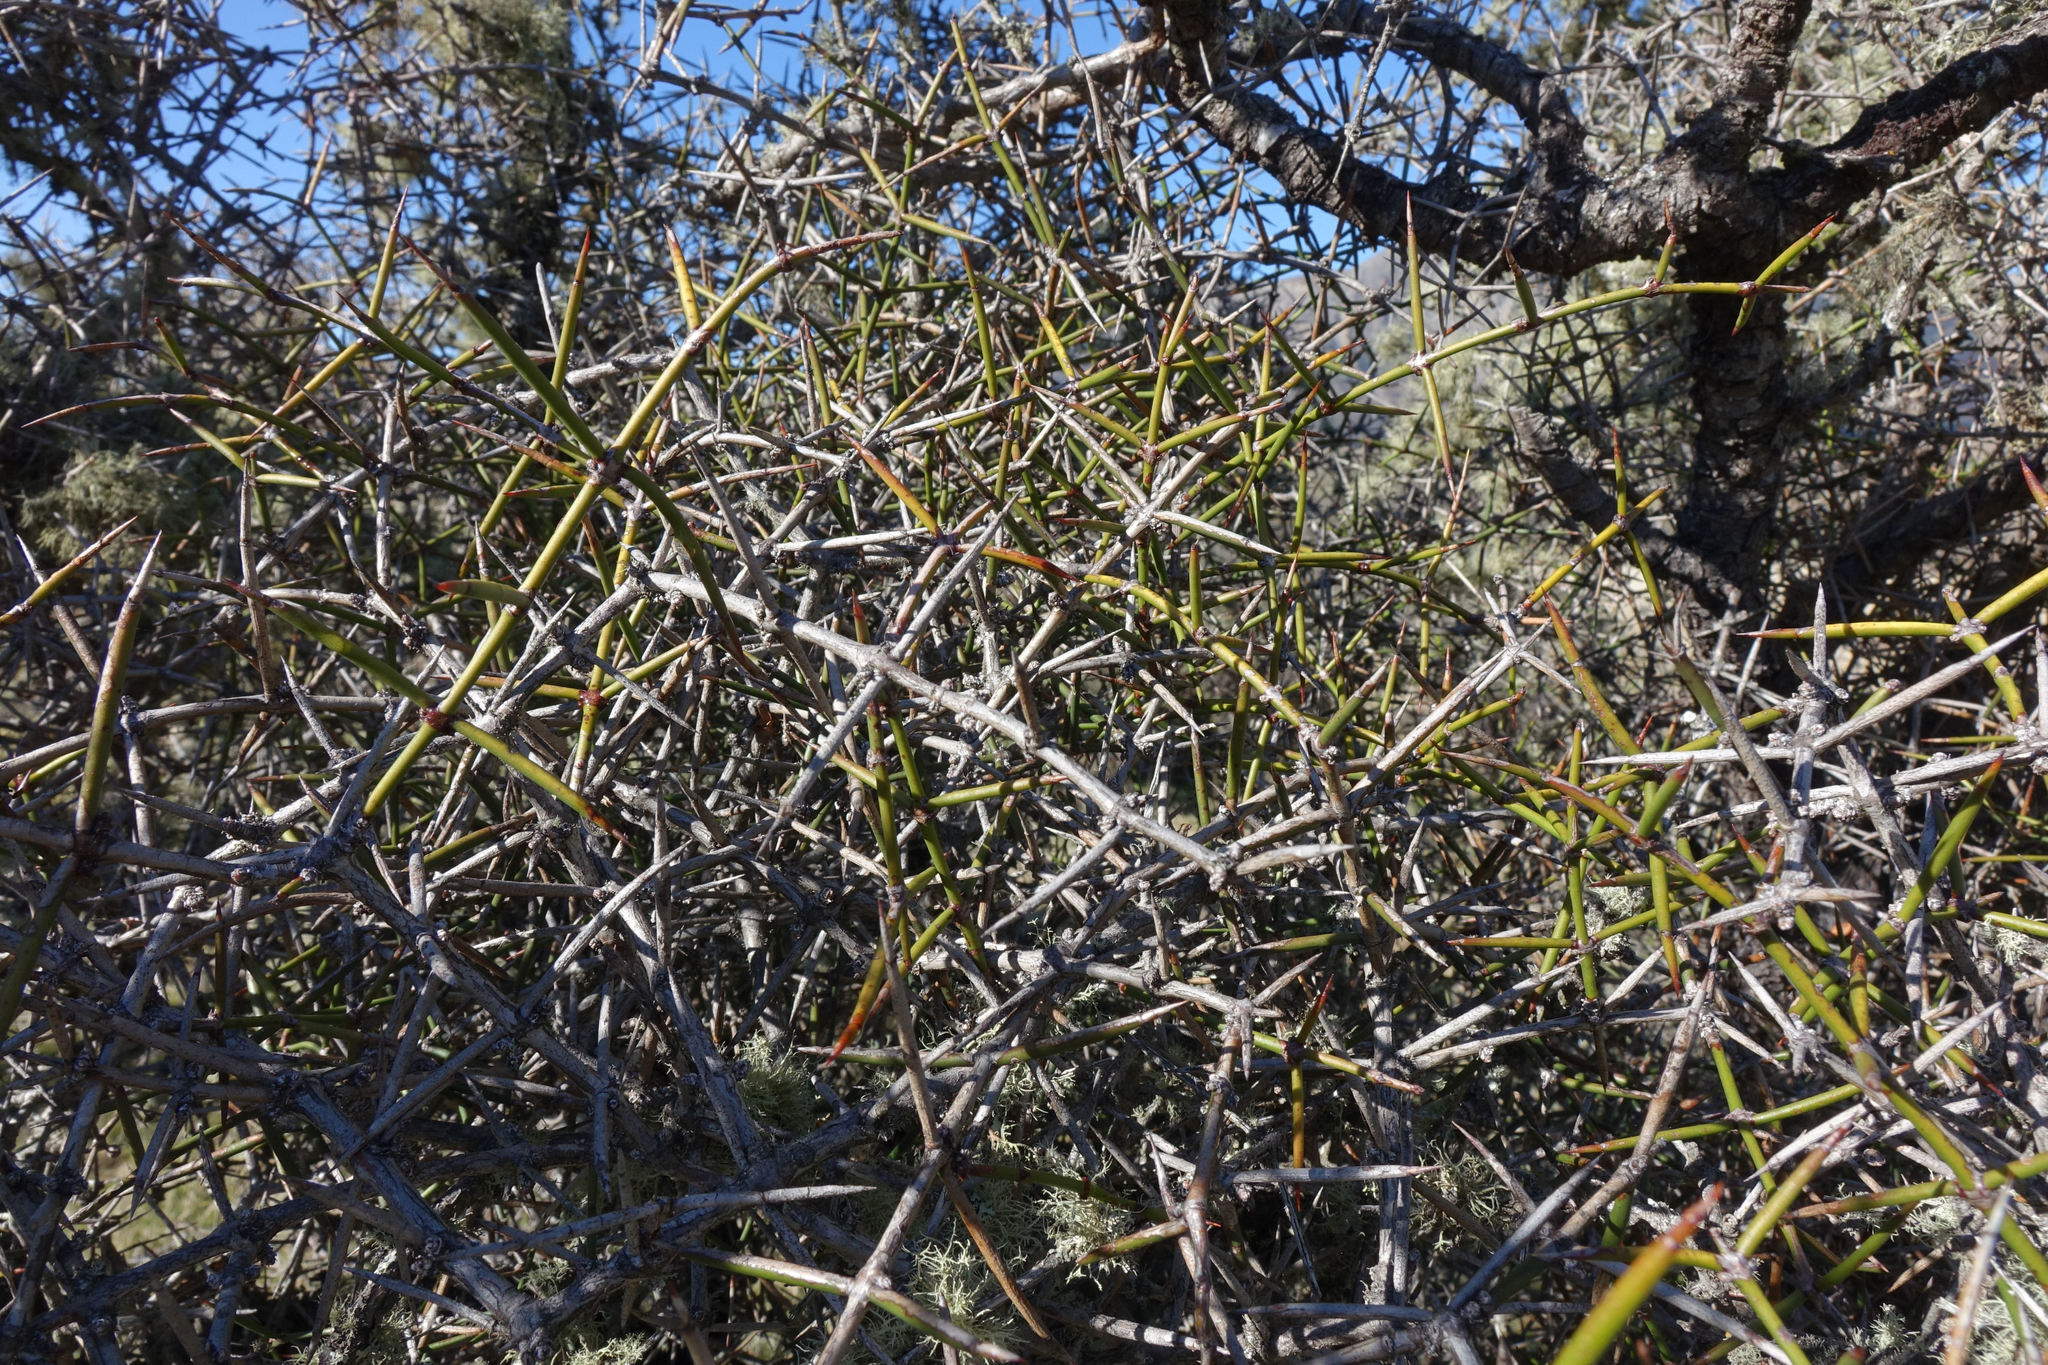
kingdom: Plantae
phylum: Tracheophyta
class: Magnoliopsida
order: Rosales
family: Rhamnaceae
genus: Discaria
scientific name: Discaria toumatou
